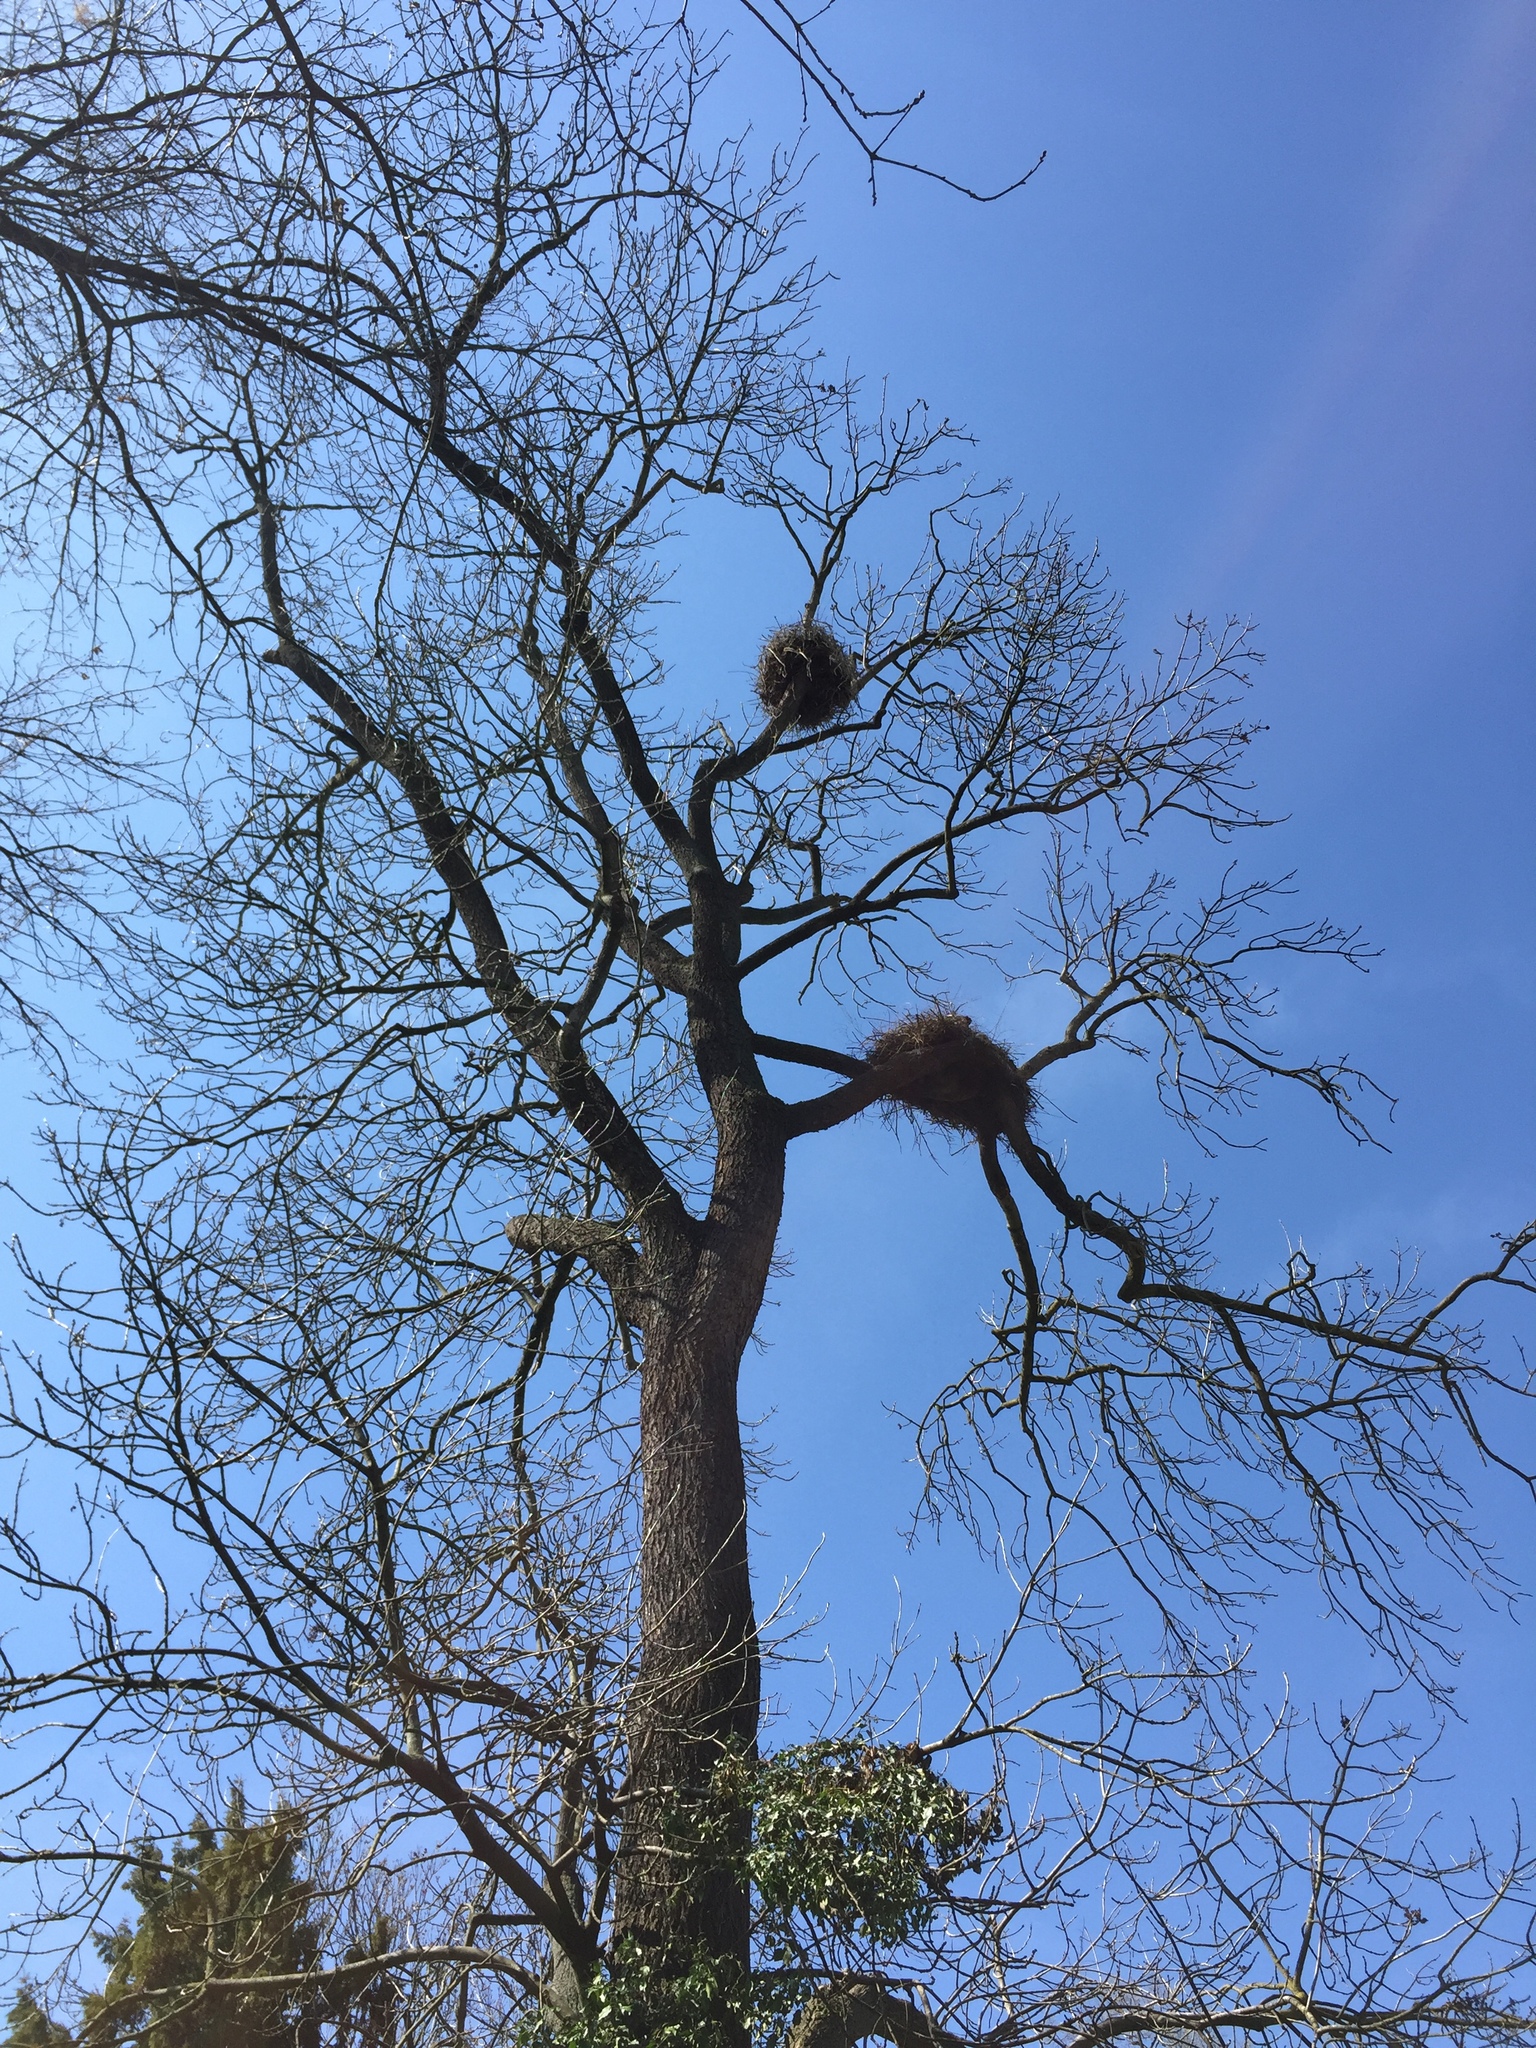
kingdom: Animalia
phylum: Chordata
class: Aves
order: Ciconiiformes
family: Ciconiidae
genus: Ciconia
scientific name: Ciconia ciconia
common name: White stork
